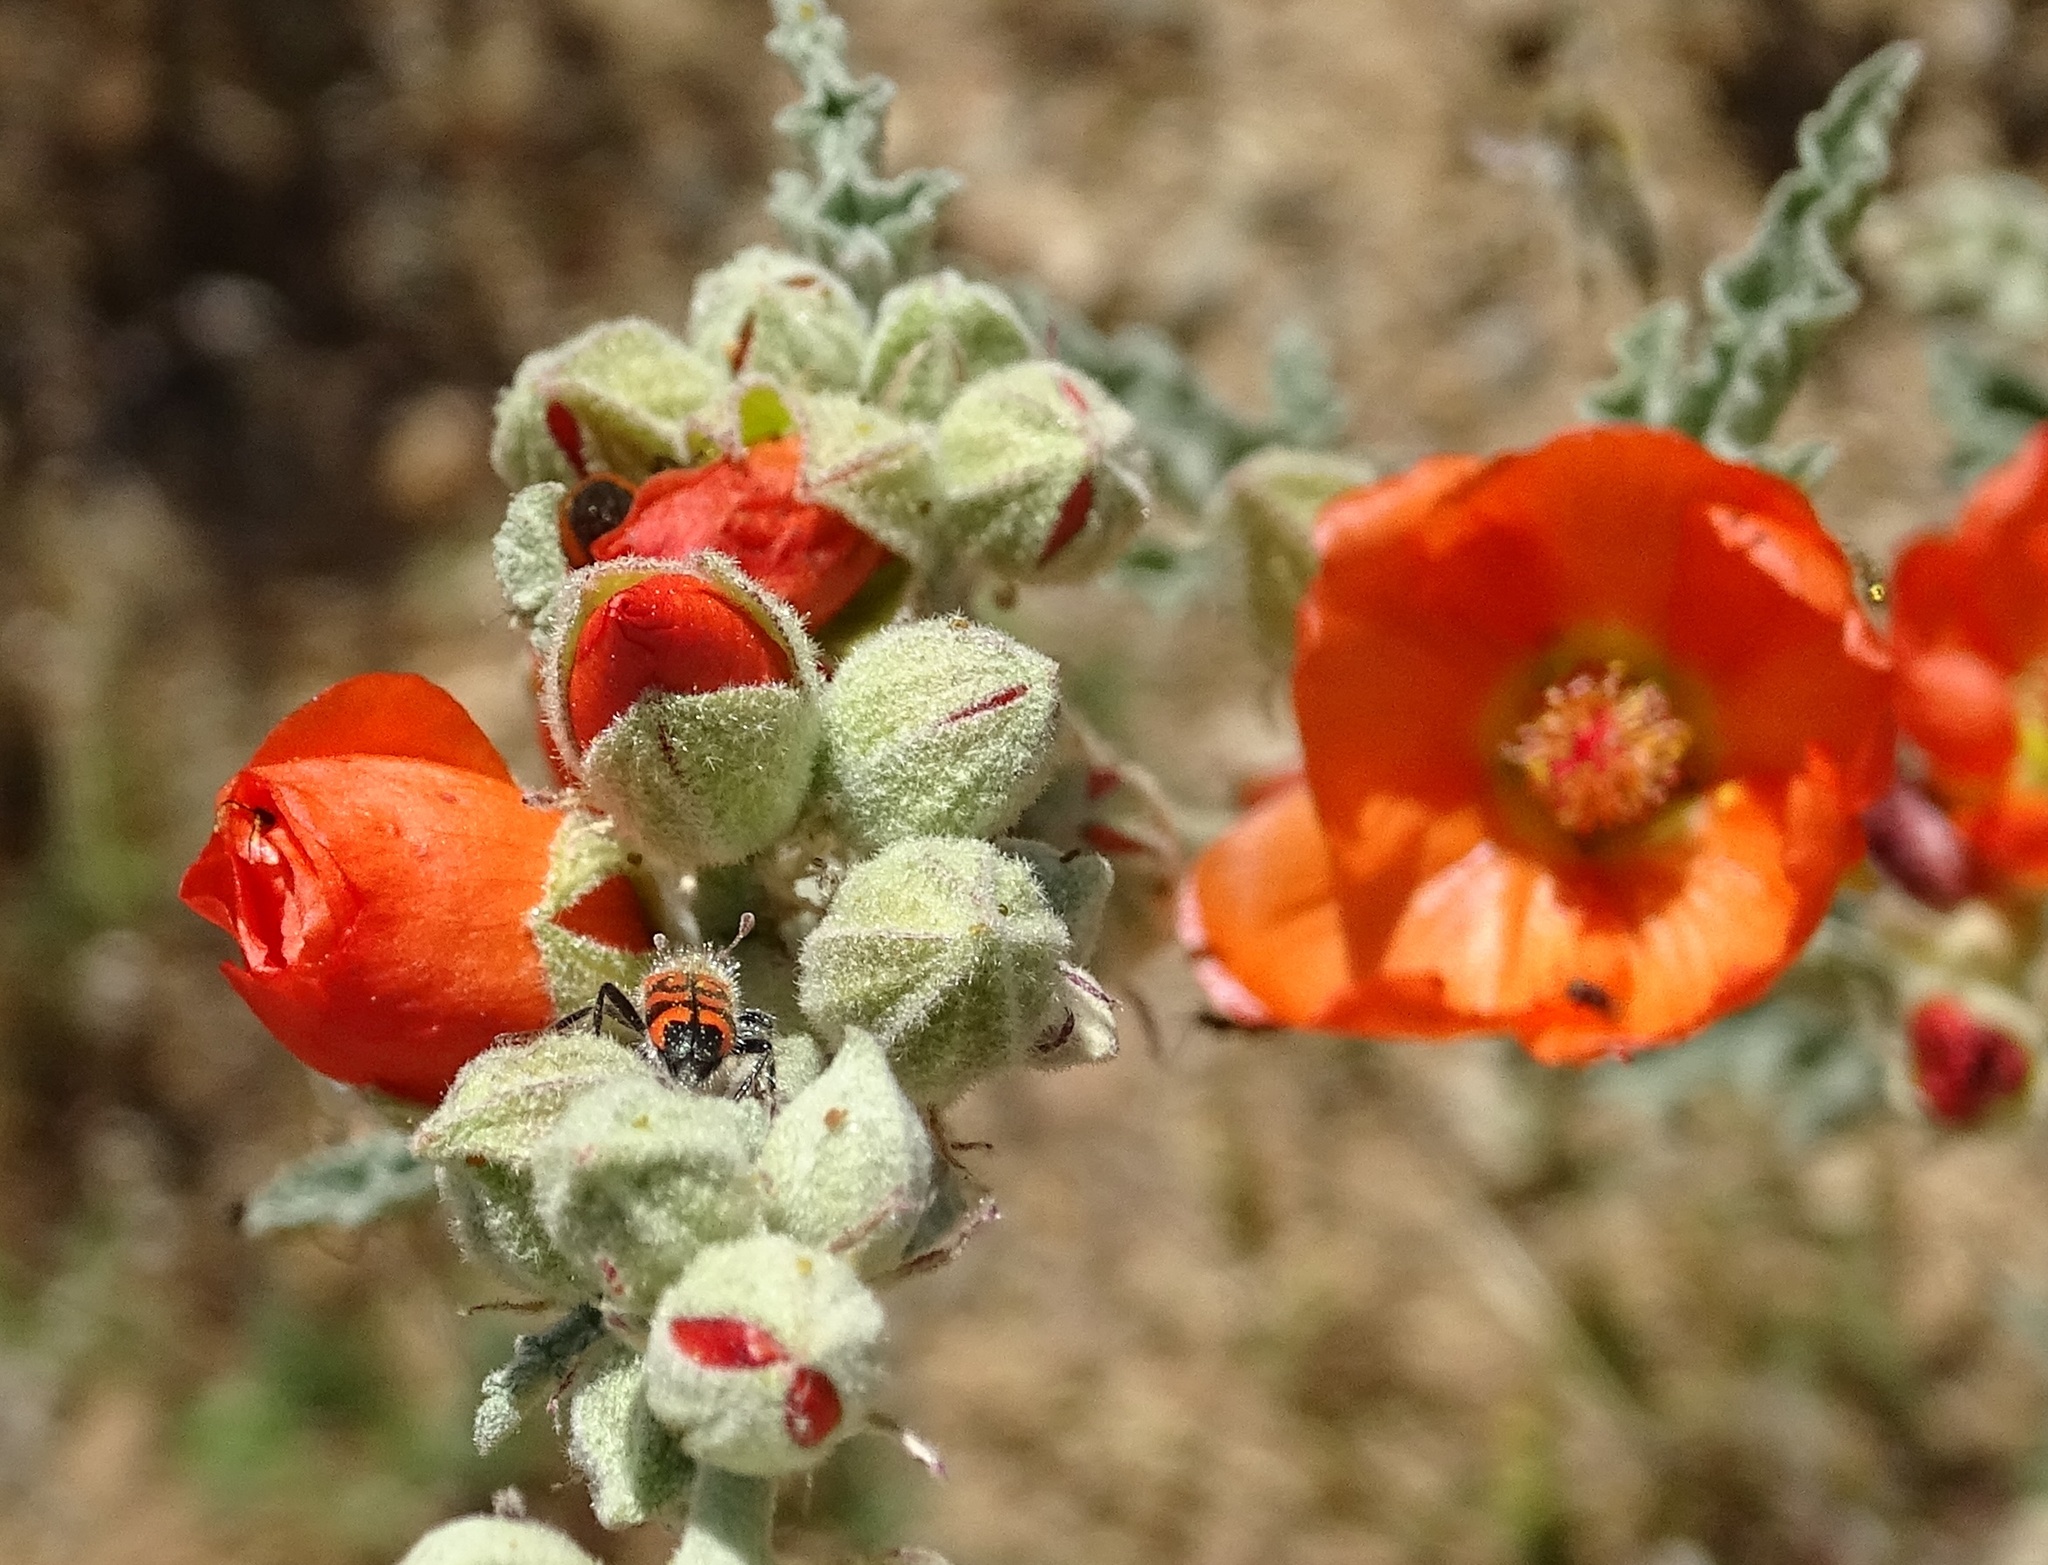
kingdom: Animalia
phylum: Arthropoda
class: Insecta
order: Coleoptera
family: Cleridae
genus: Trichodes
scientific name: Trichodes ornatus
